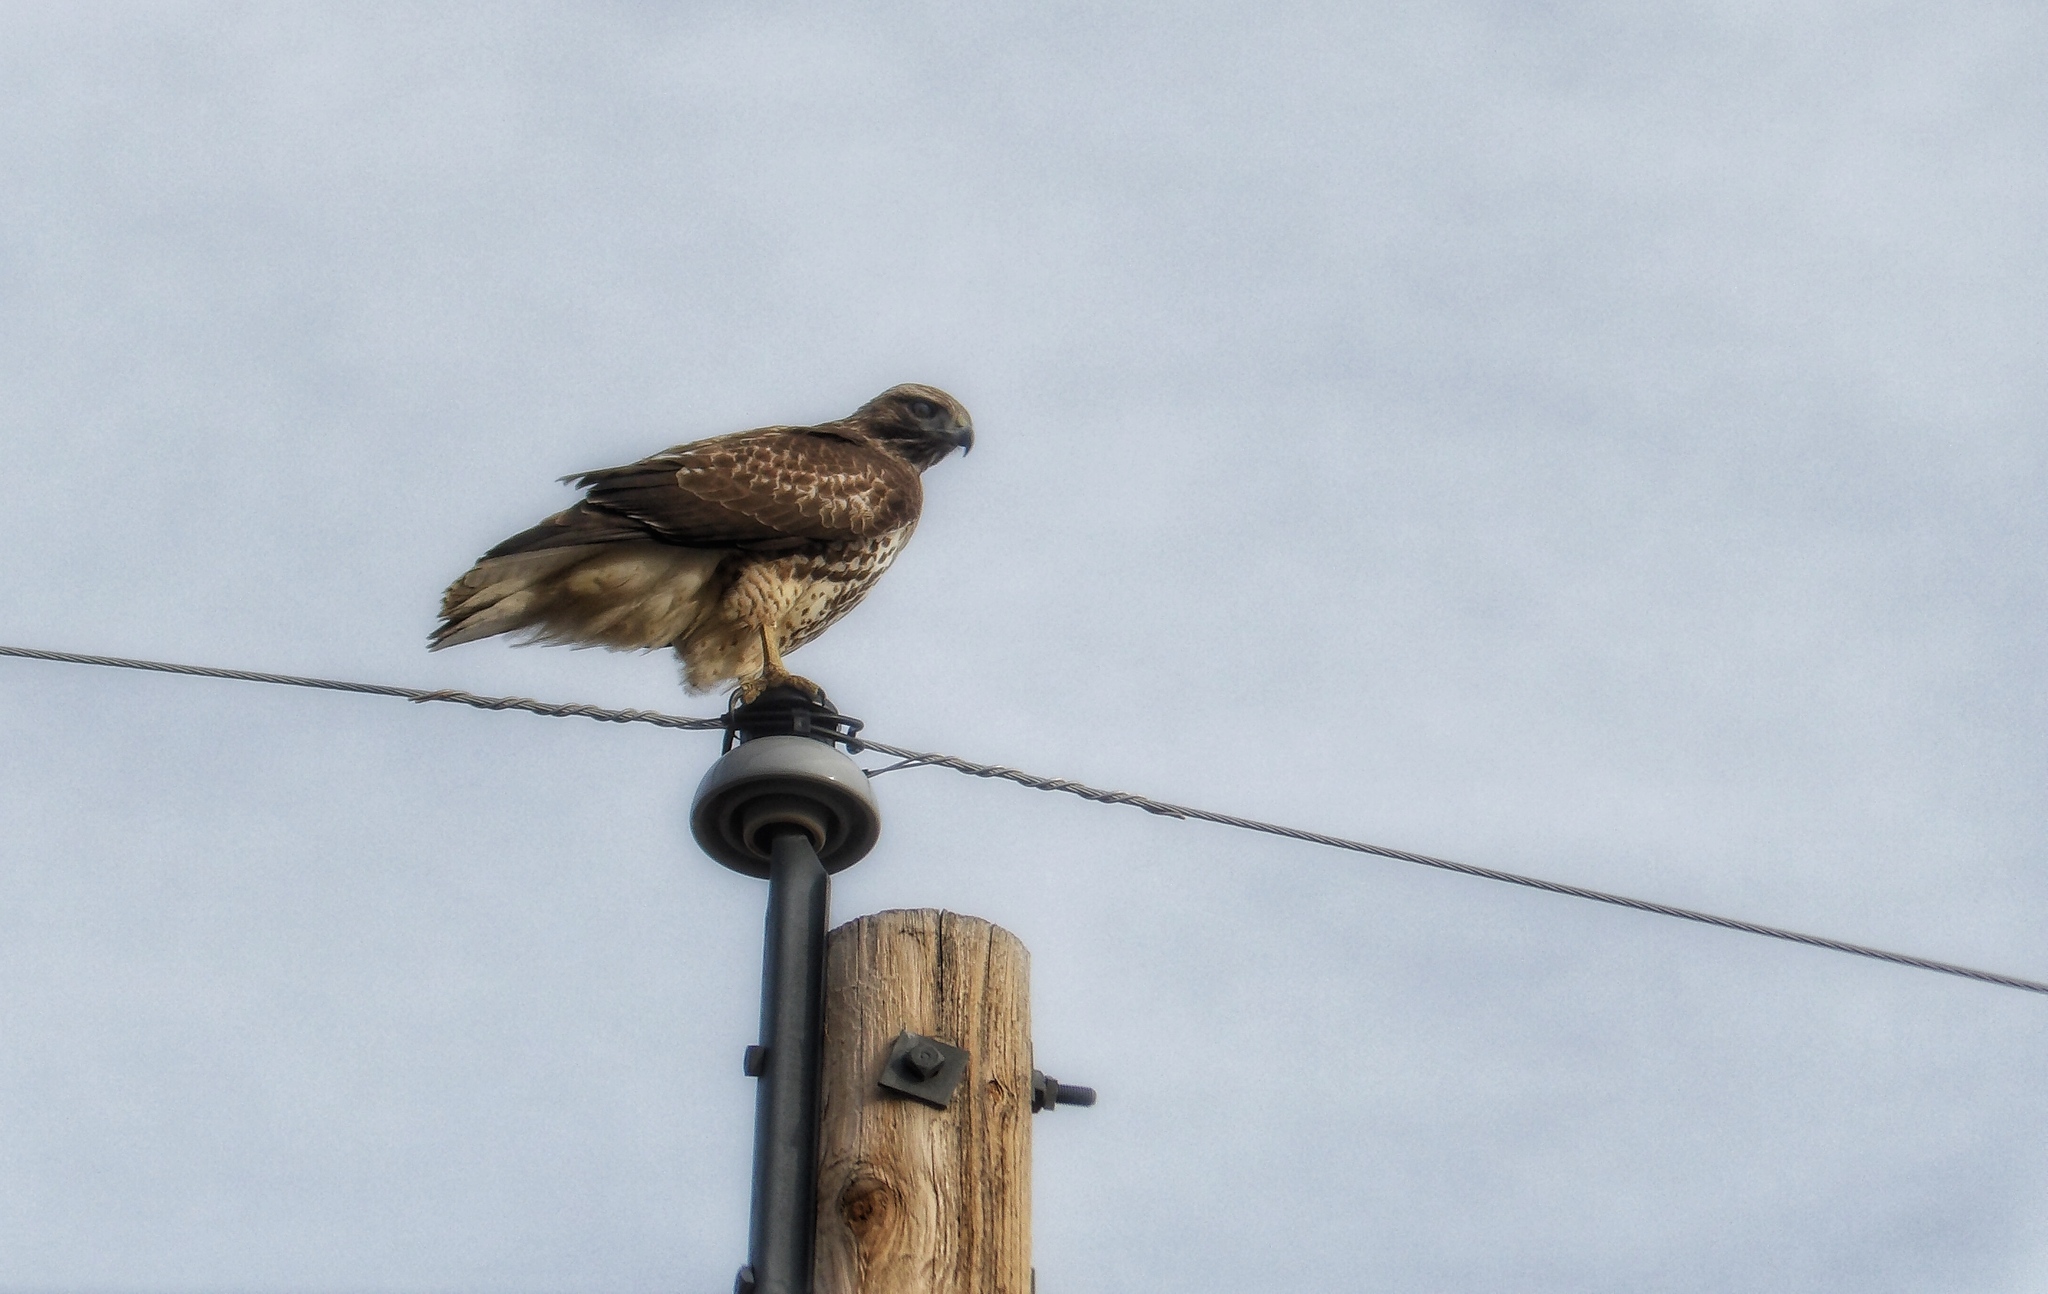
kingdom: Animalia
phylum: Chordata
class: Aves
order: Accipitriformes
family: Accipitridae
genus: Buteo
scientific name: Buteo jamaicensis
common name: Red-tailed hawk
